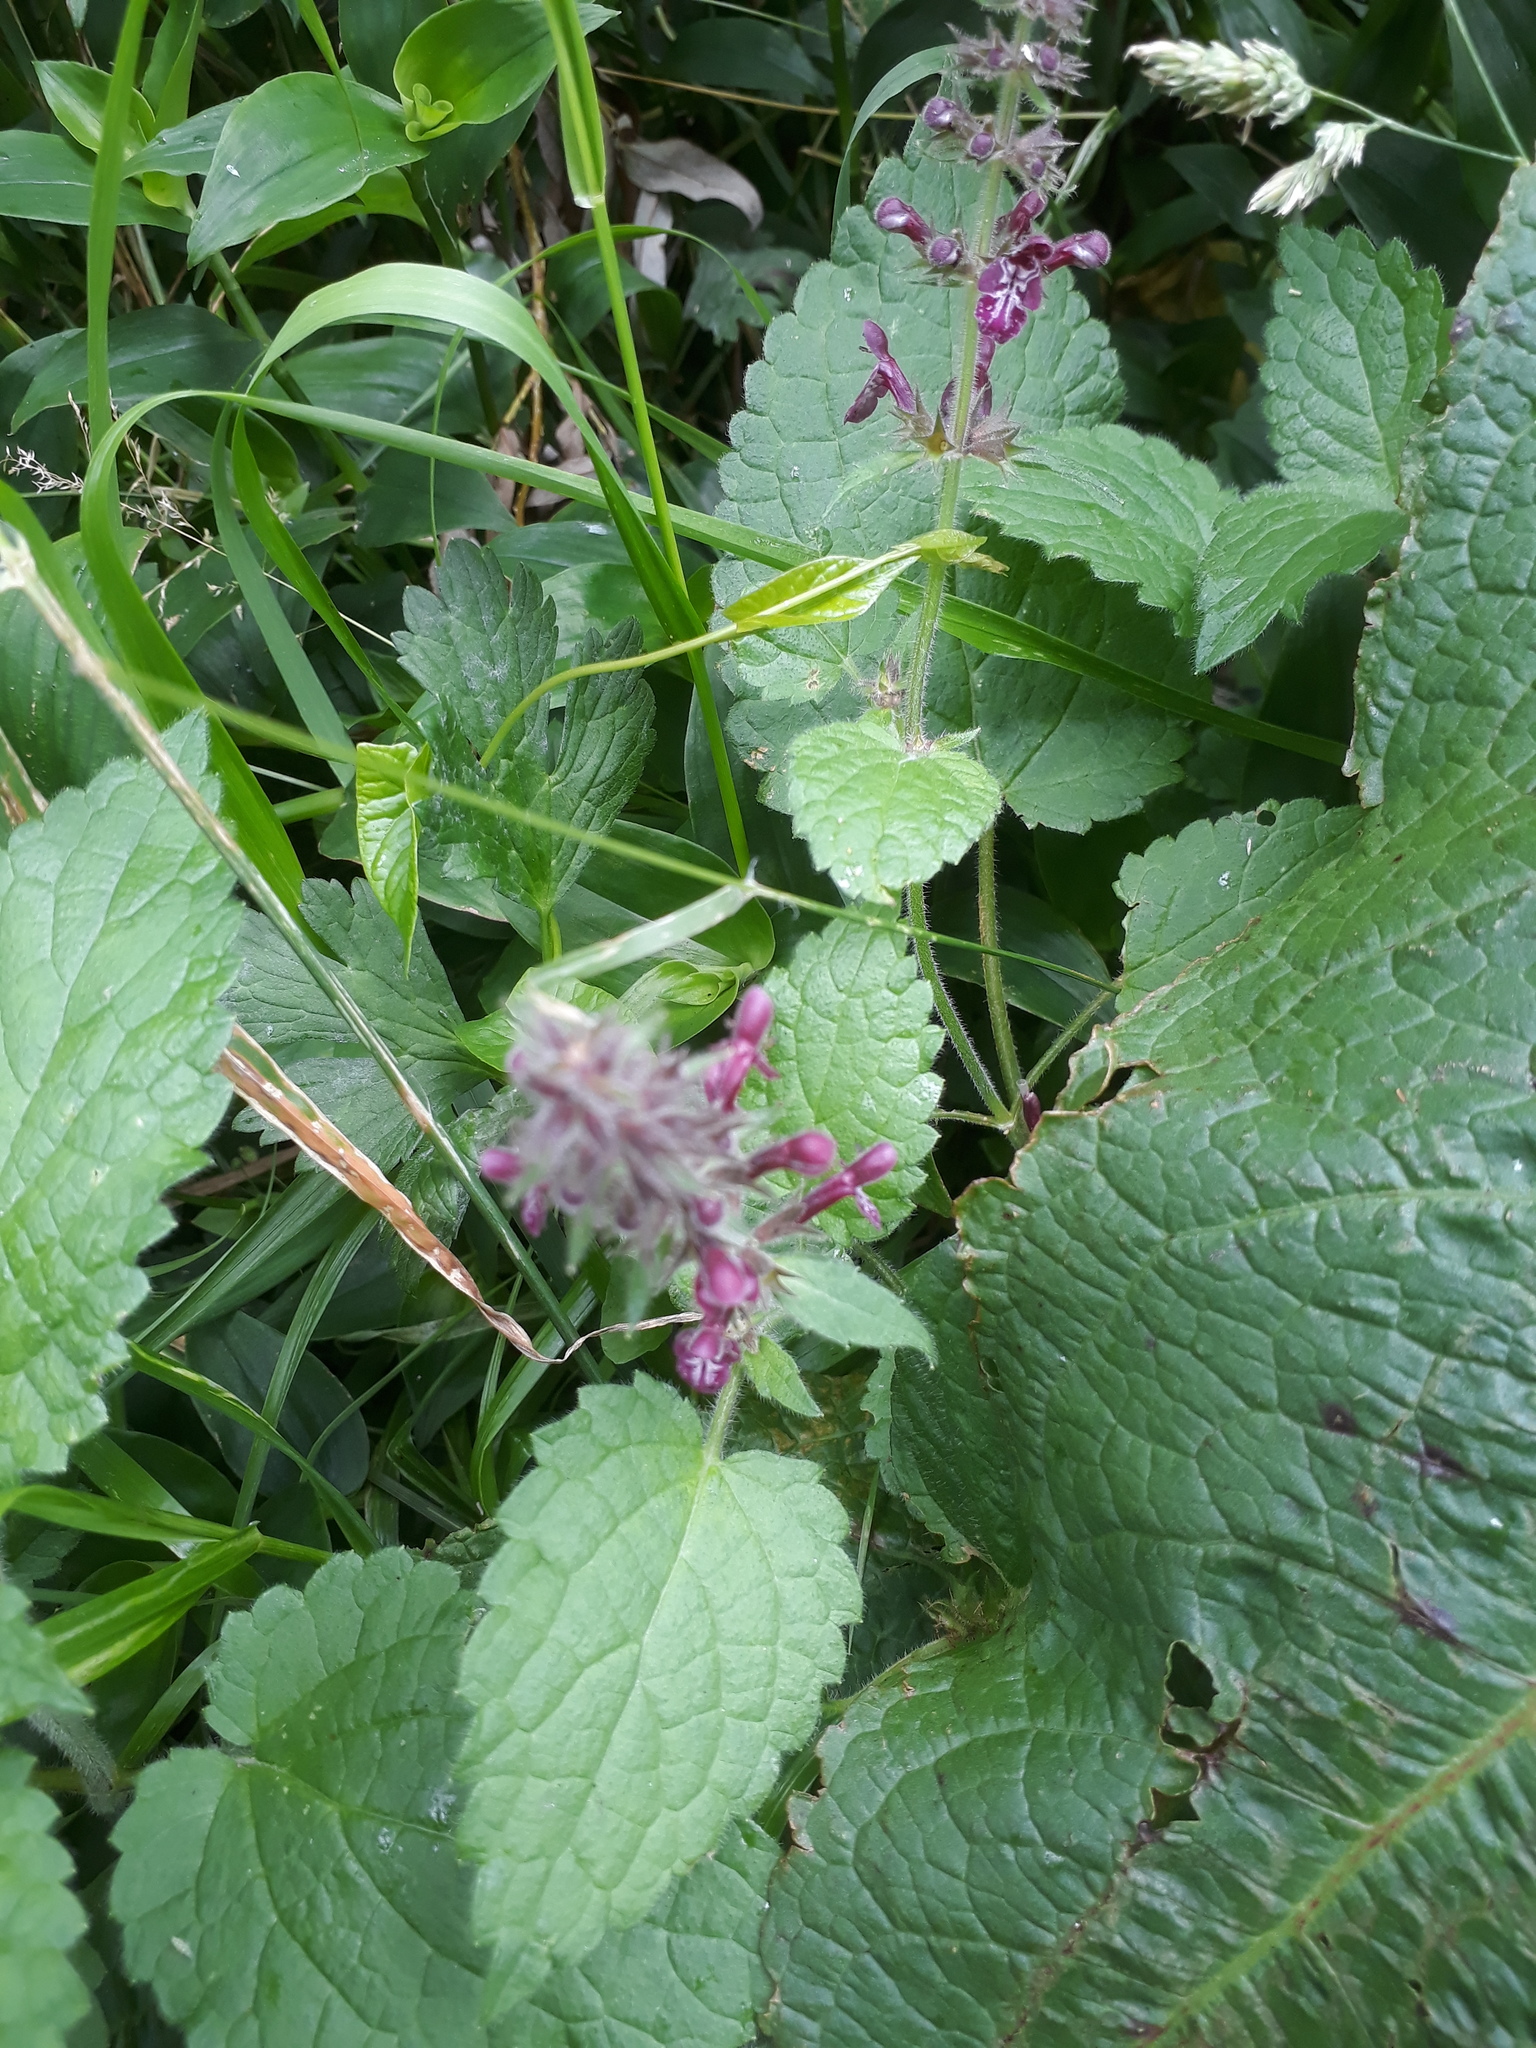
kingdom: Plantae
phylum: Tracheophyta
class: Magnoliopsida
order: Lamiales
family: Lamiaceae
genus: Stachys
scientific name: Stachys sylvatica
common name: Hedge woundwort
